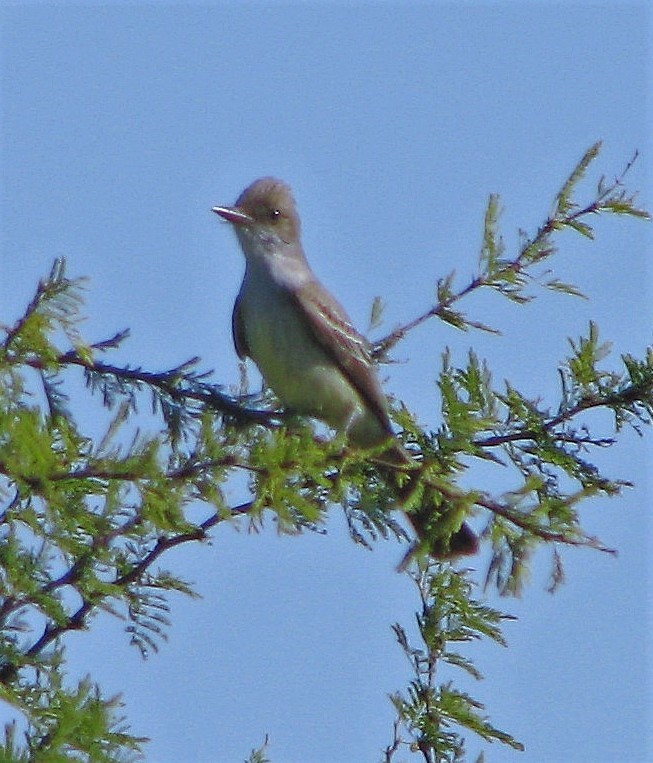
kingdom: Animalia
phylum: Chordata
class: Aves
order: Passeriformes
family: Tyrannidae
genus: Myiarchus
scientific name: Myiarchus swainsoni
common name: Swainson's flycatcher
